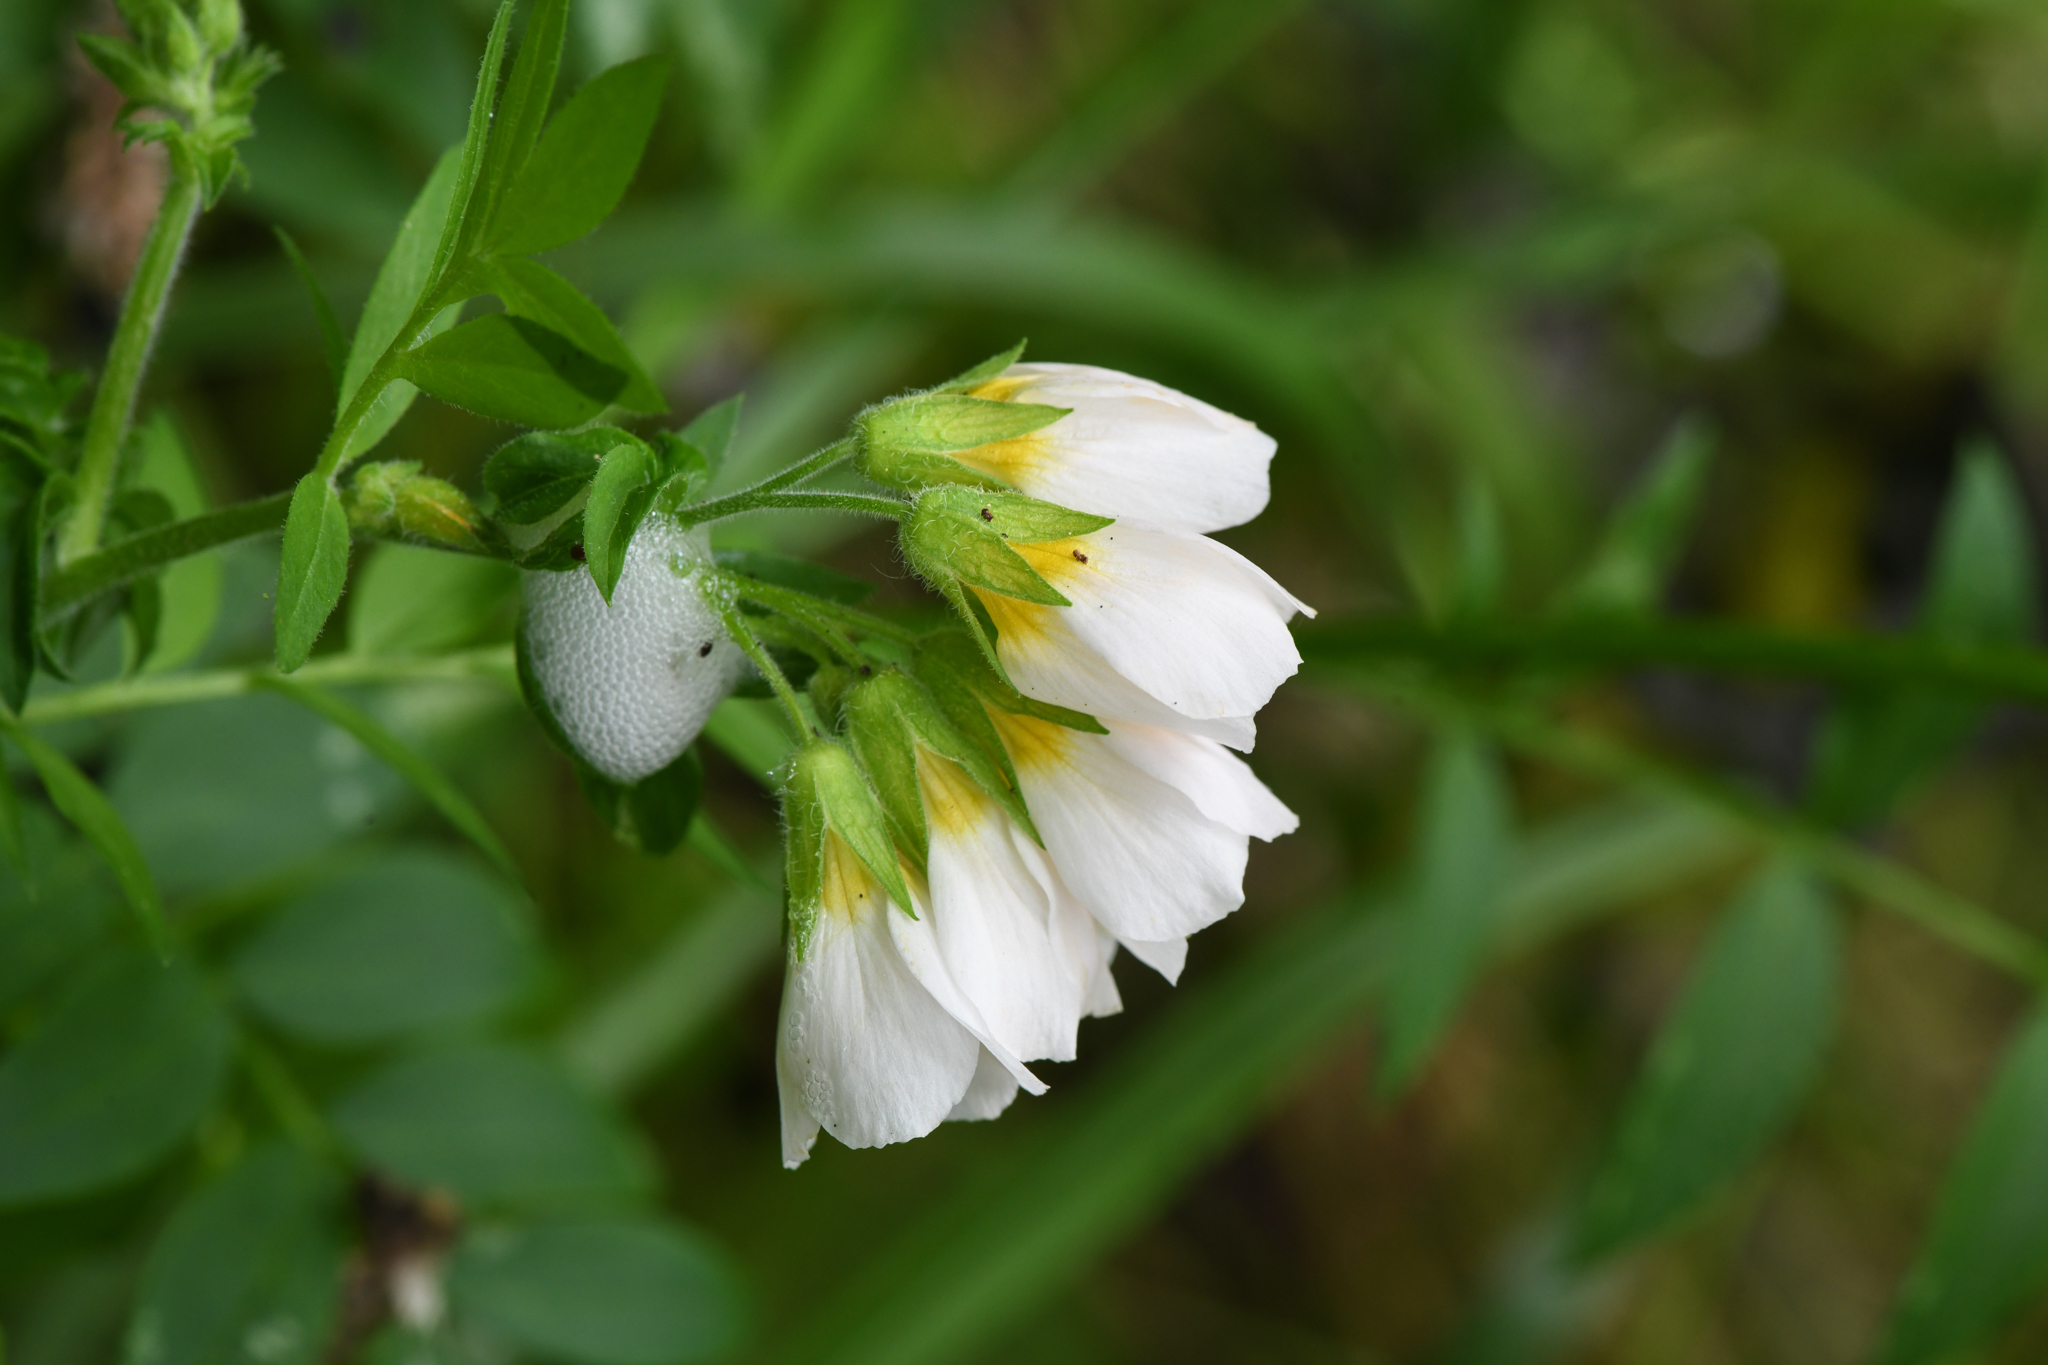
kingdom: Plantae
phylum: Tracheophyta
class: Magnoliopsida
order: Ericales
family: Polemoniaceae
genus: Polemonium
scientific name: Polemonium carneum
